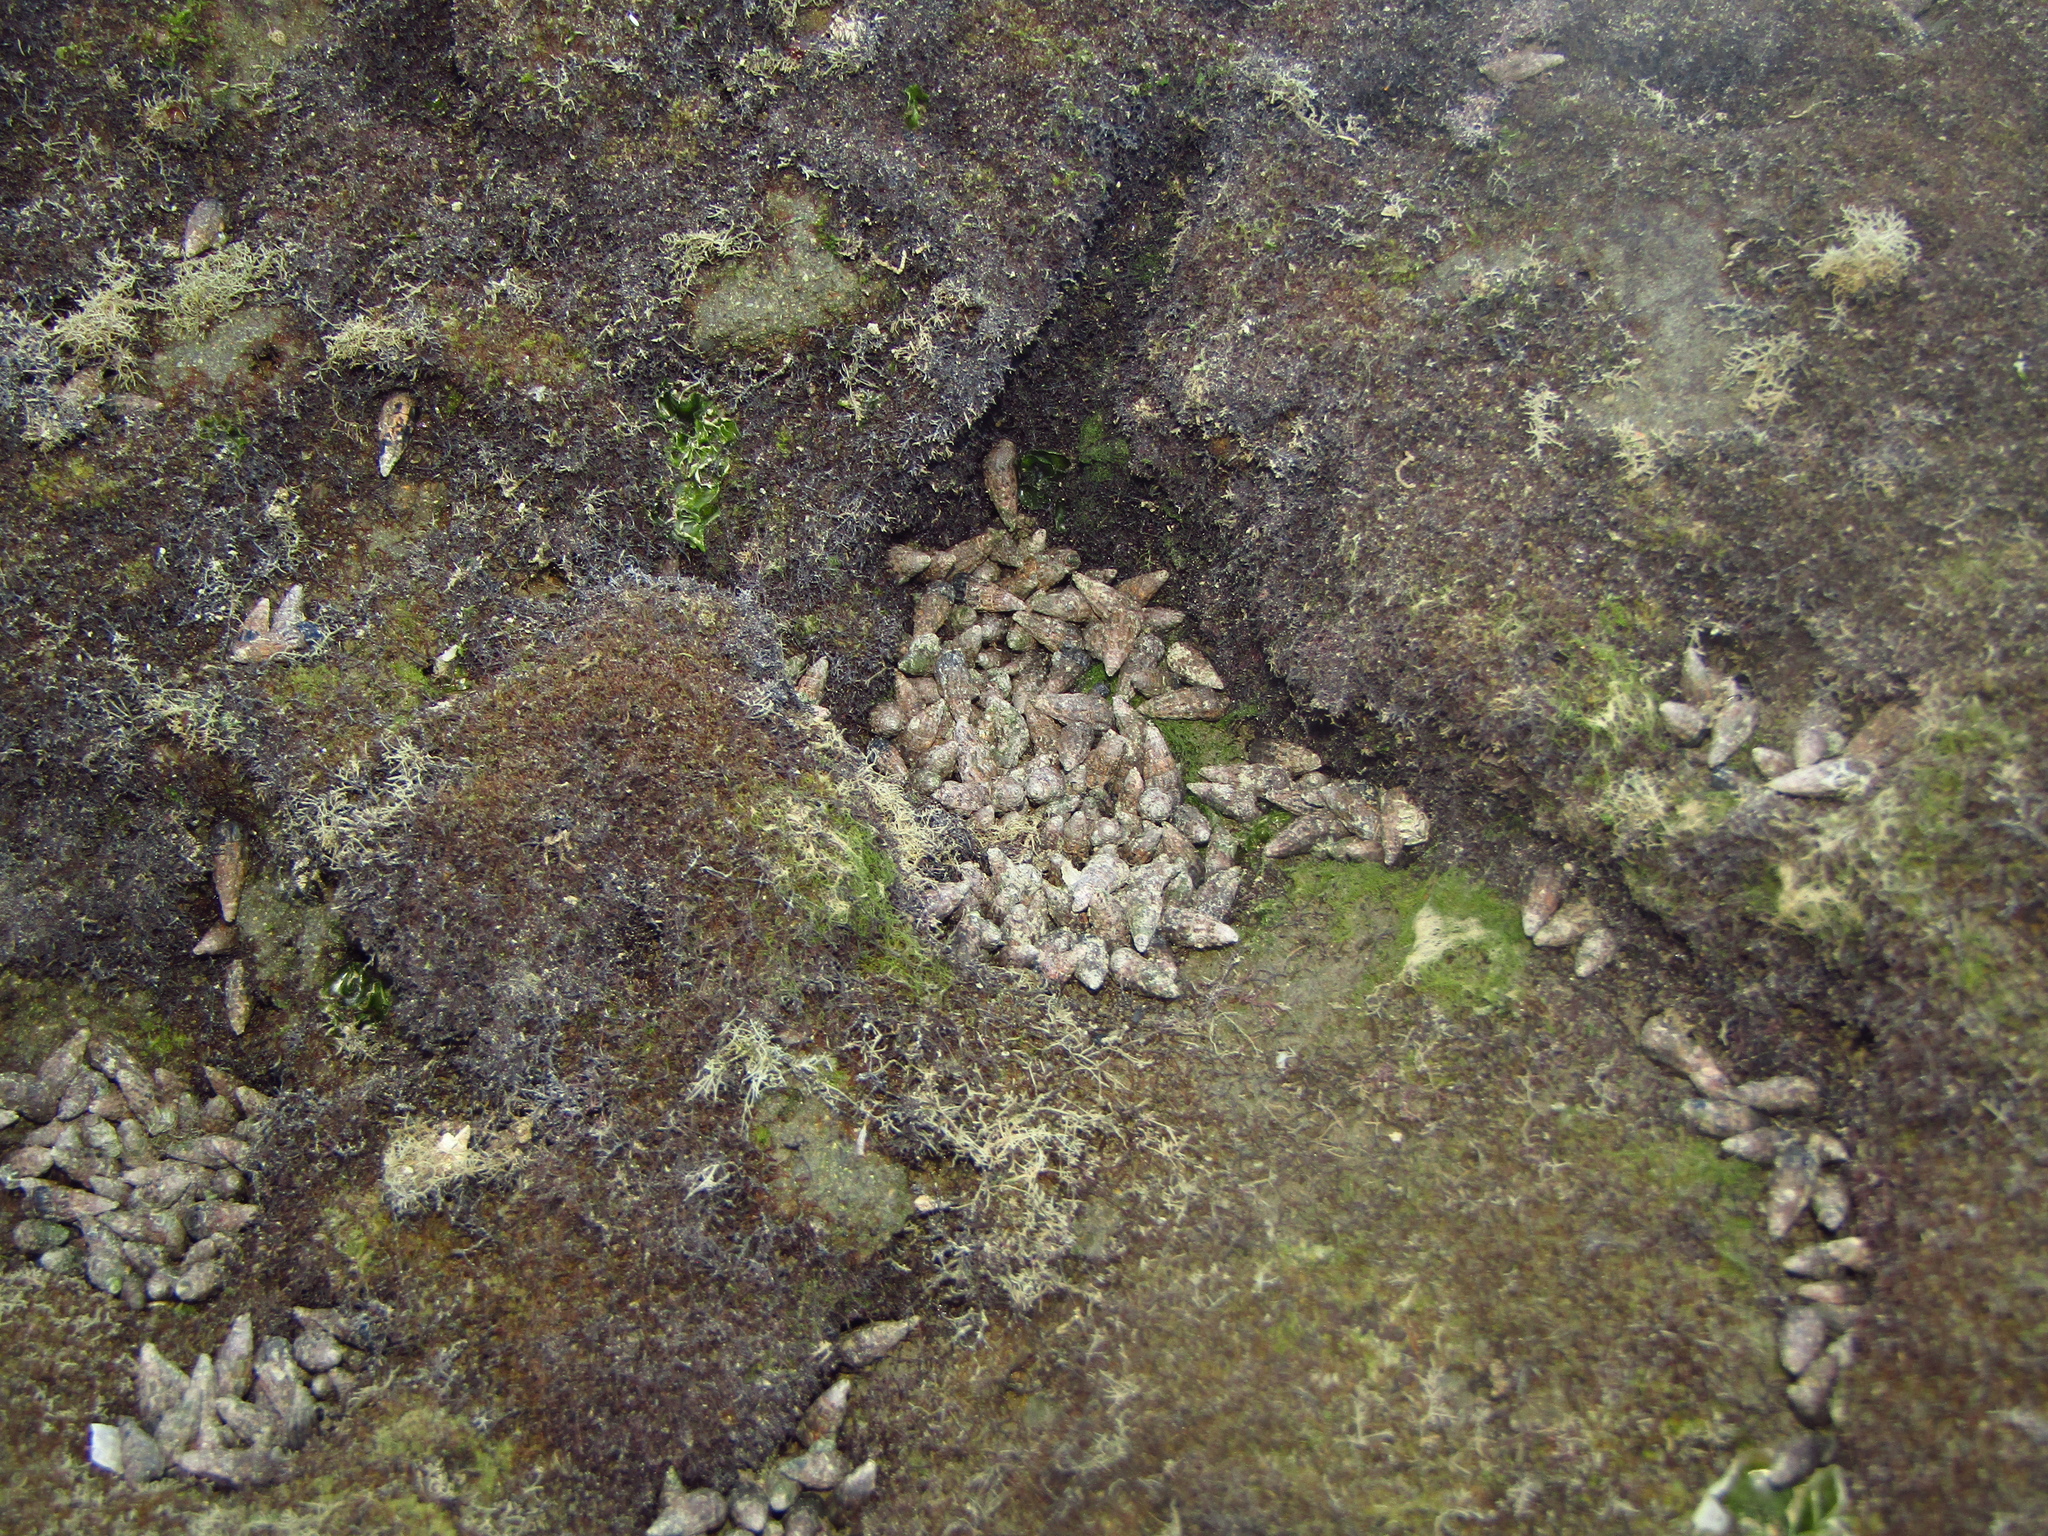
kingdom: Animalia
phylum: Mollusca
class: Gastropoda
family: Batillariidae
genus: Zeacumantus
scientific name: Zeacumantus subcarinatus
